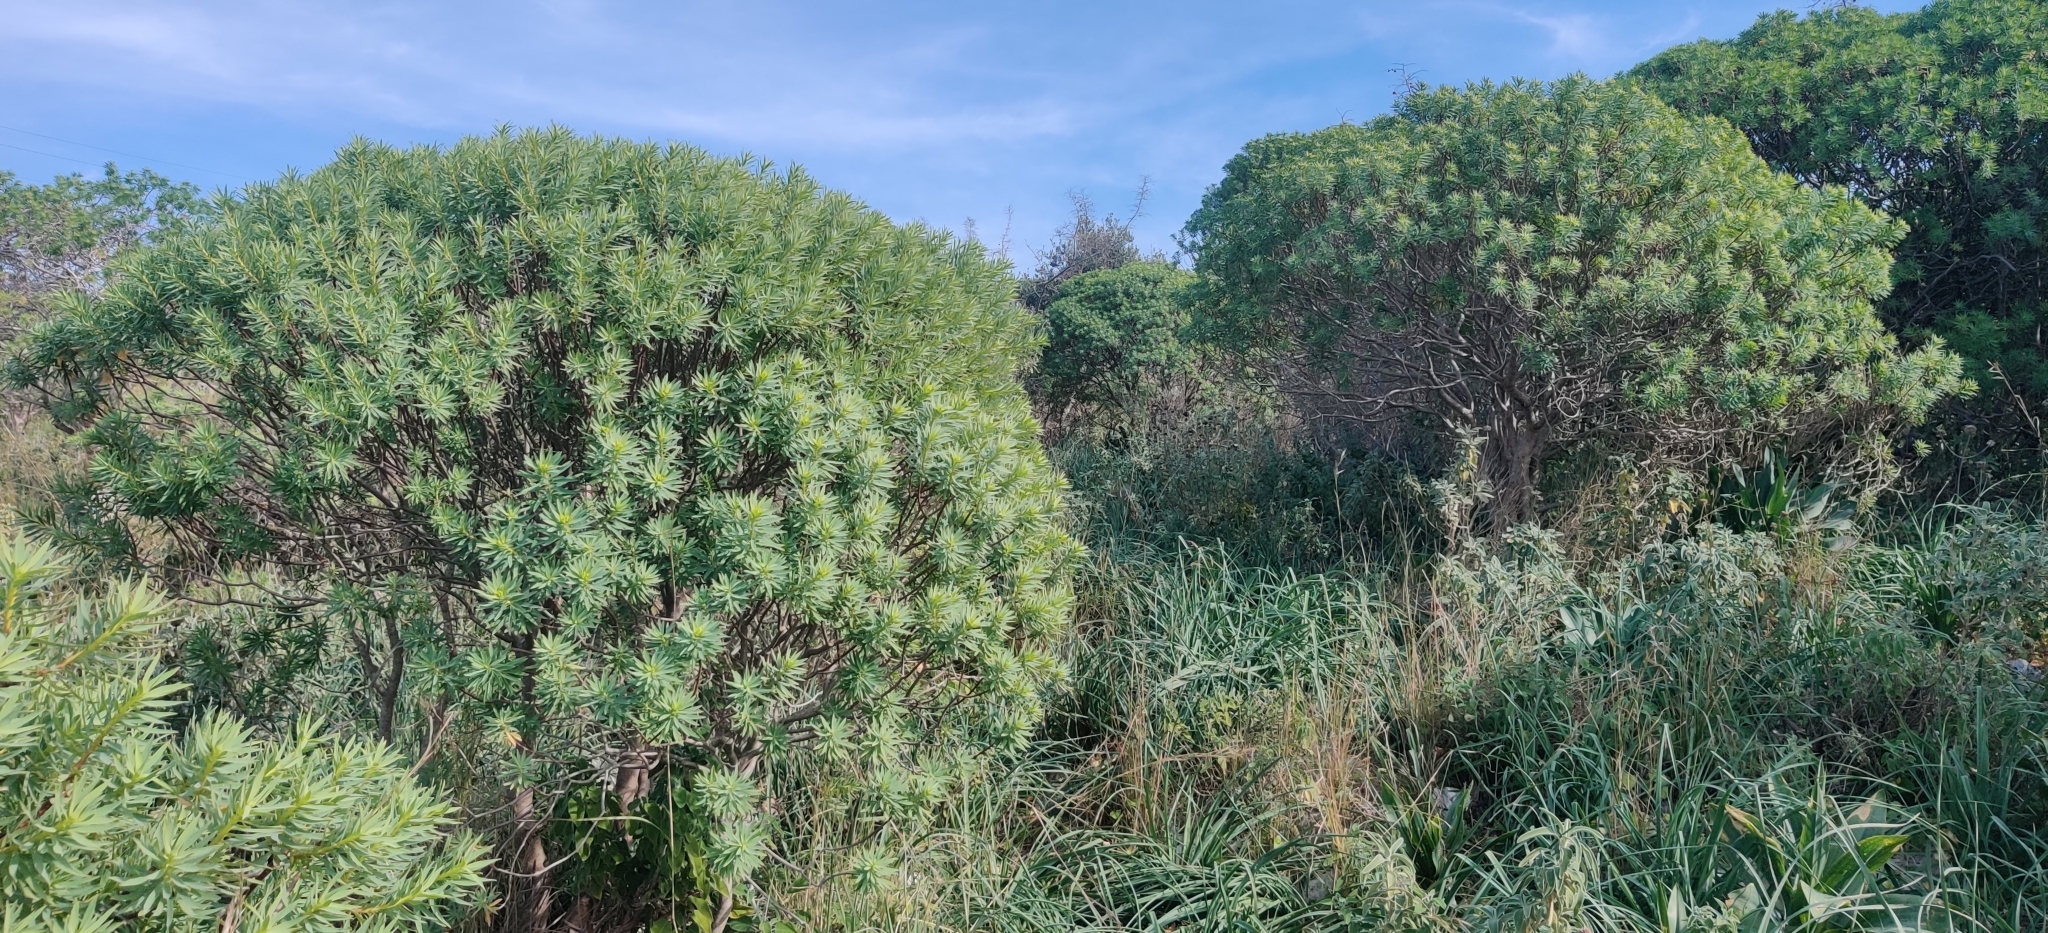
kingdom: Plantae
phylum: Tracheophyta
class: Magnoliopsida
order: Malpighiales
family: Euphorbiaceae
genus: Euphorbia
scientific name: Euphorbia dendroides
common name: Tree spurge
